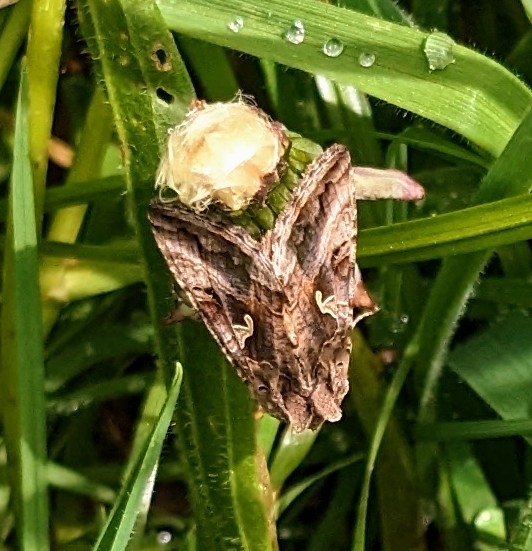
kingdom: Animalia
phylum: Arthropoda
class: Insecta
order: Lepidoptera
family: Noctuidae
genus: Autographa
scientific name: Autographa gamma
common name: Silver y
